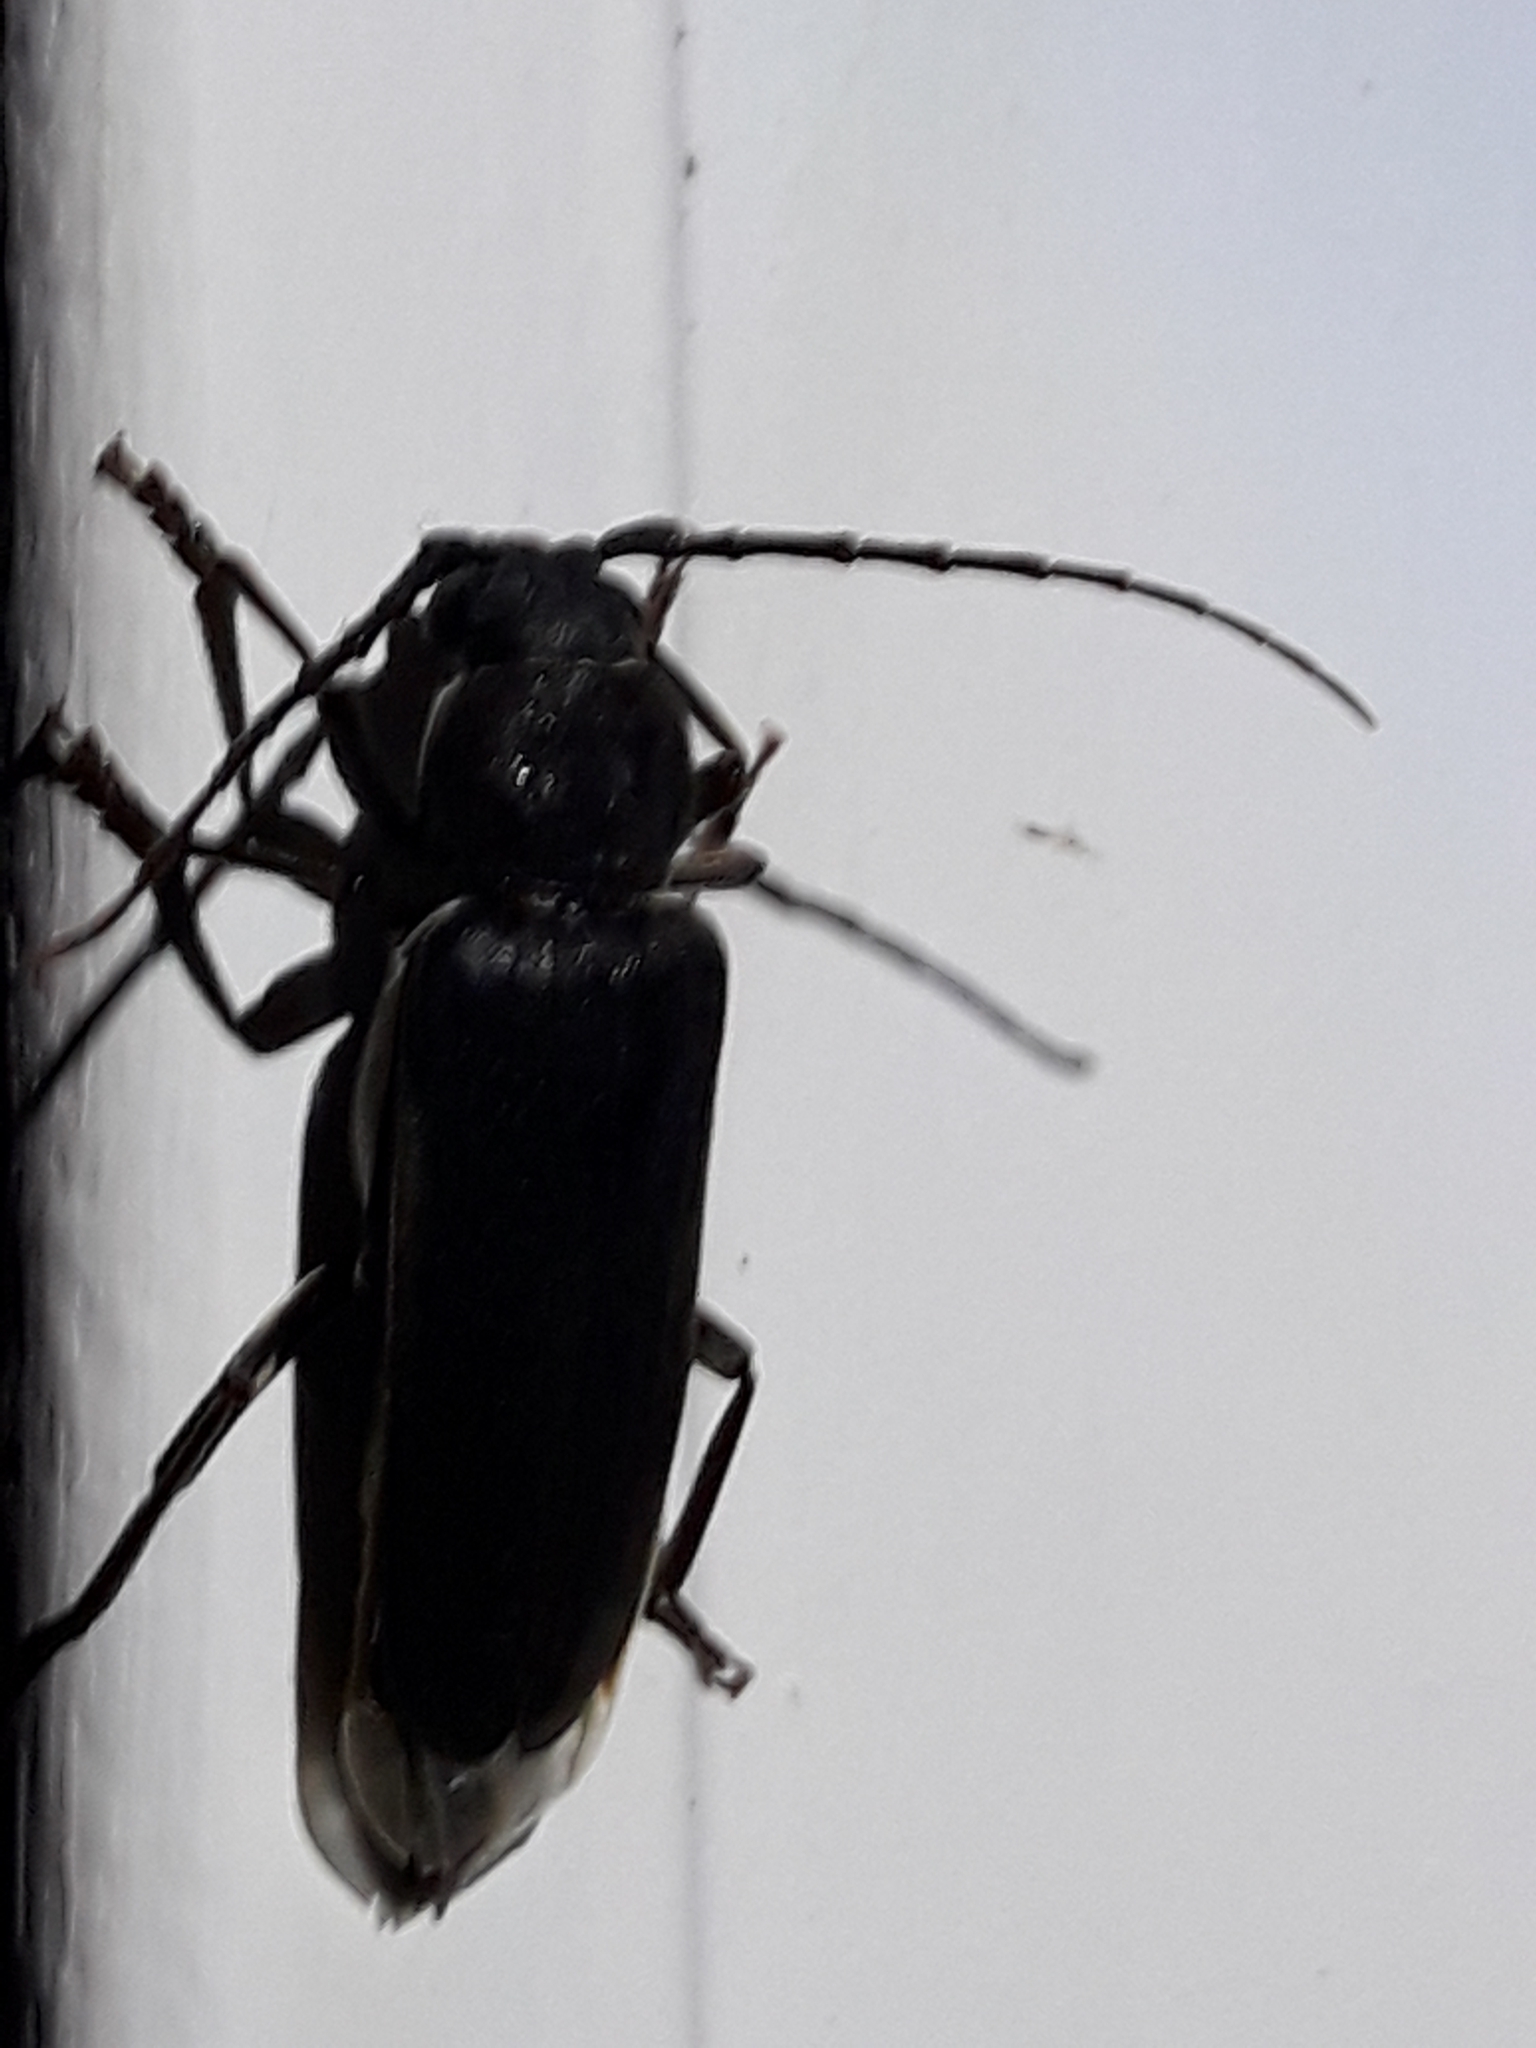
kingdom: Animalia
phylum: Arthropoda
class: Insecta
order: Coleoptera
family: Cerambycidae
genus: Arhopalus
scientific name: Arhopalus ferus
